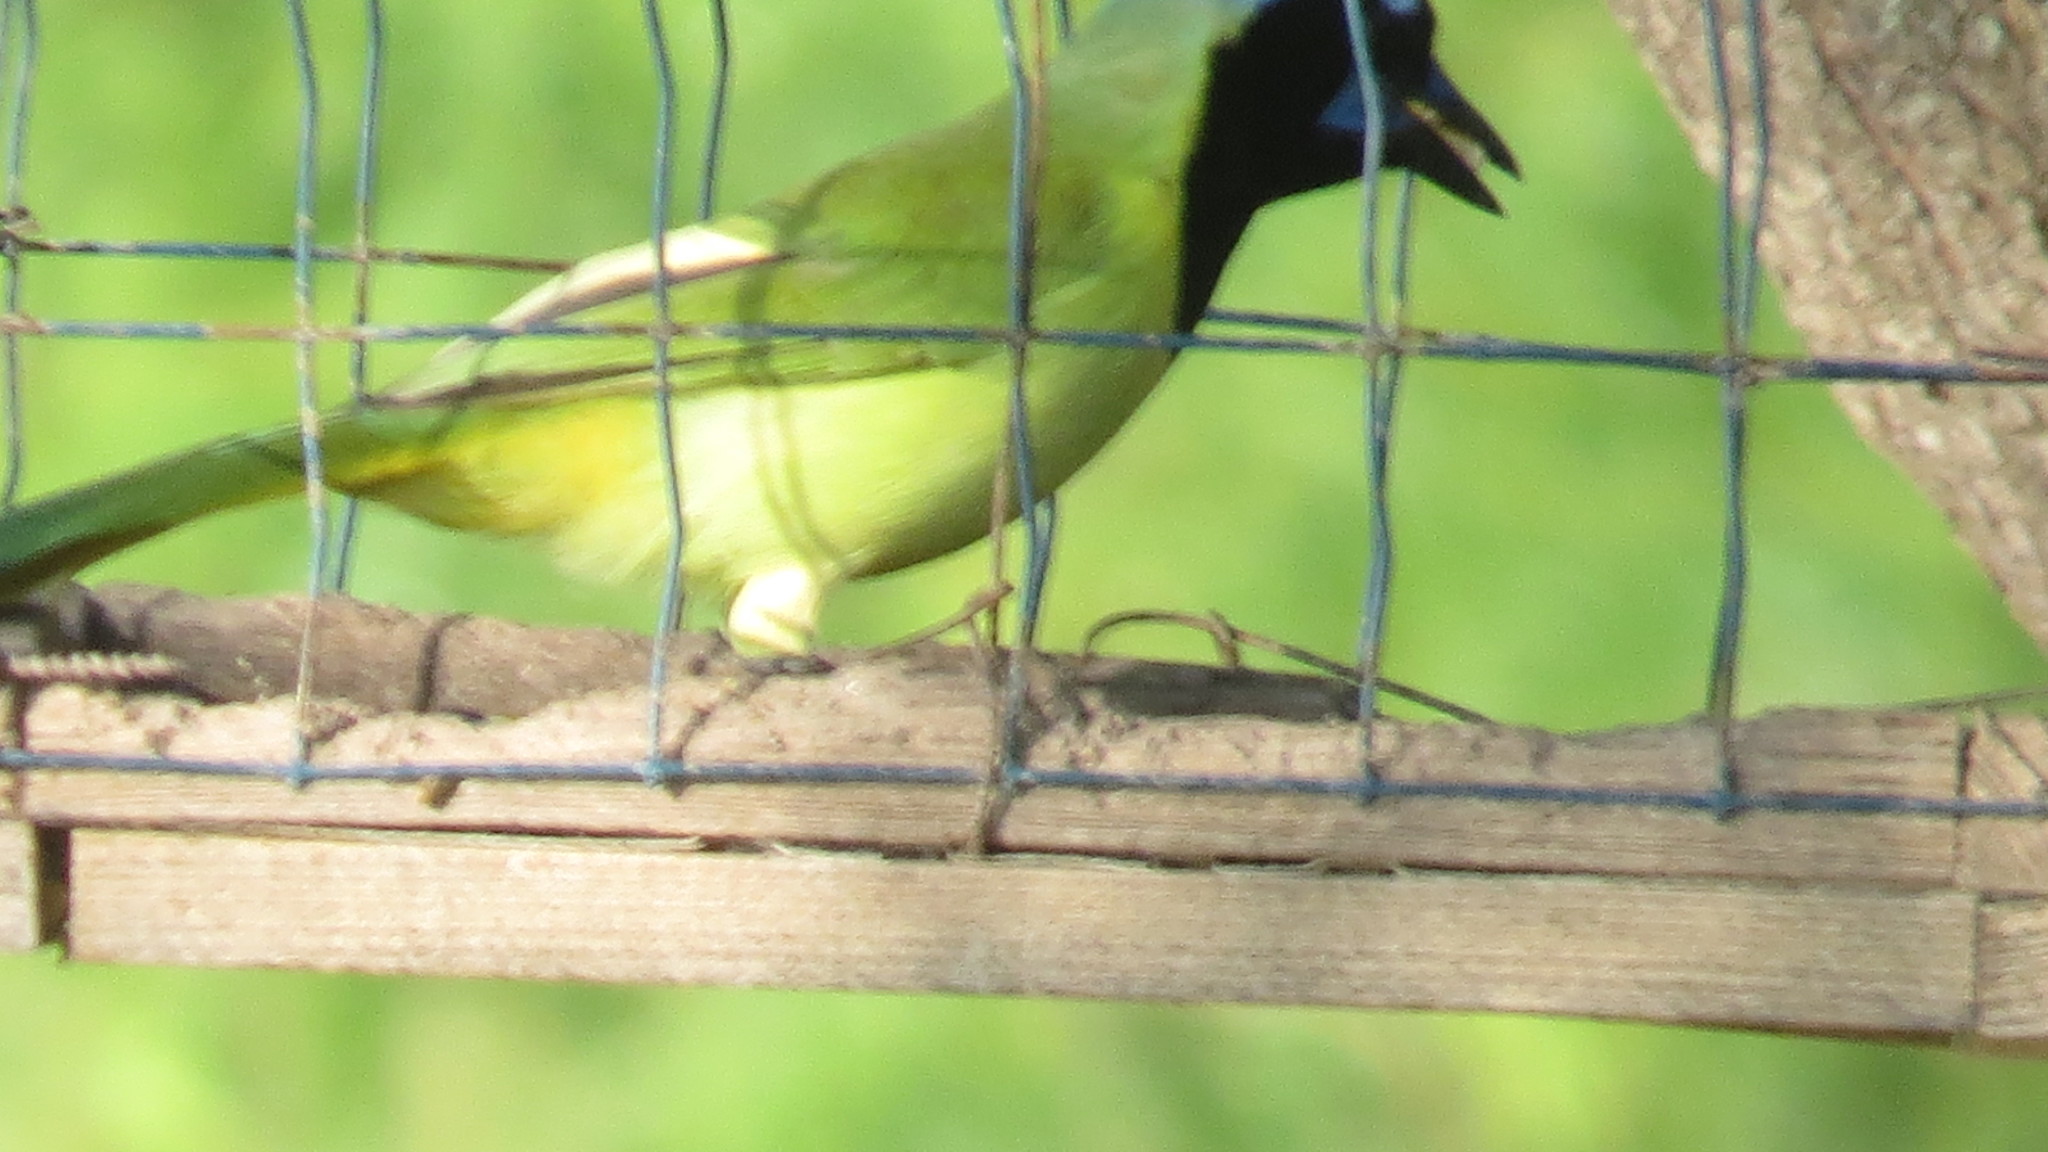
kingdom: Animalia
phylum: Chordata
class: Aves
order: Passeriformes
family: Corvidae
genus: Cyanocorax
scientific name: Cyanocorax yncas
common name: Green jay
